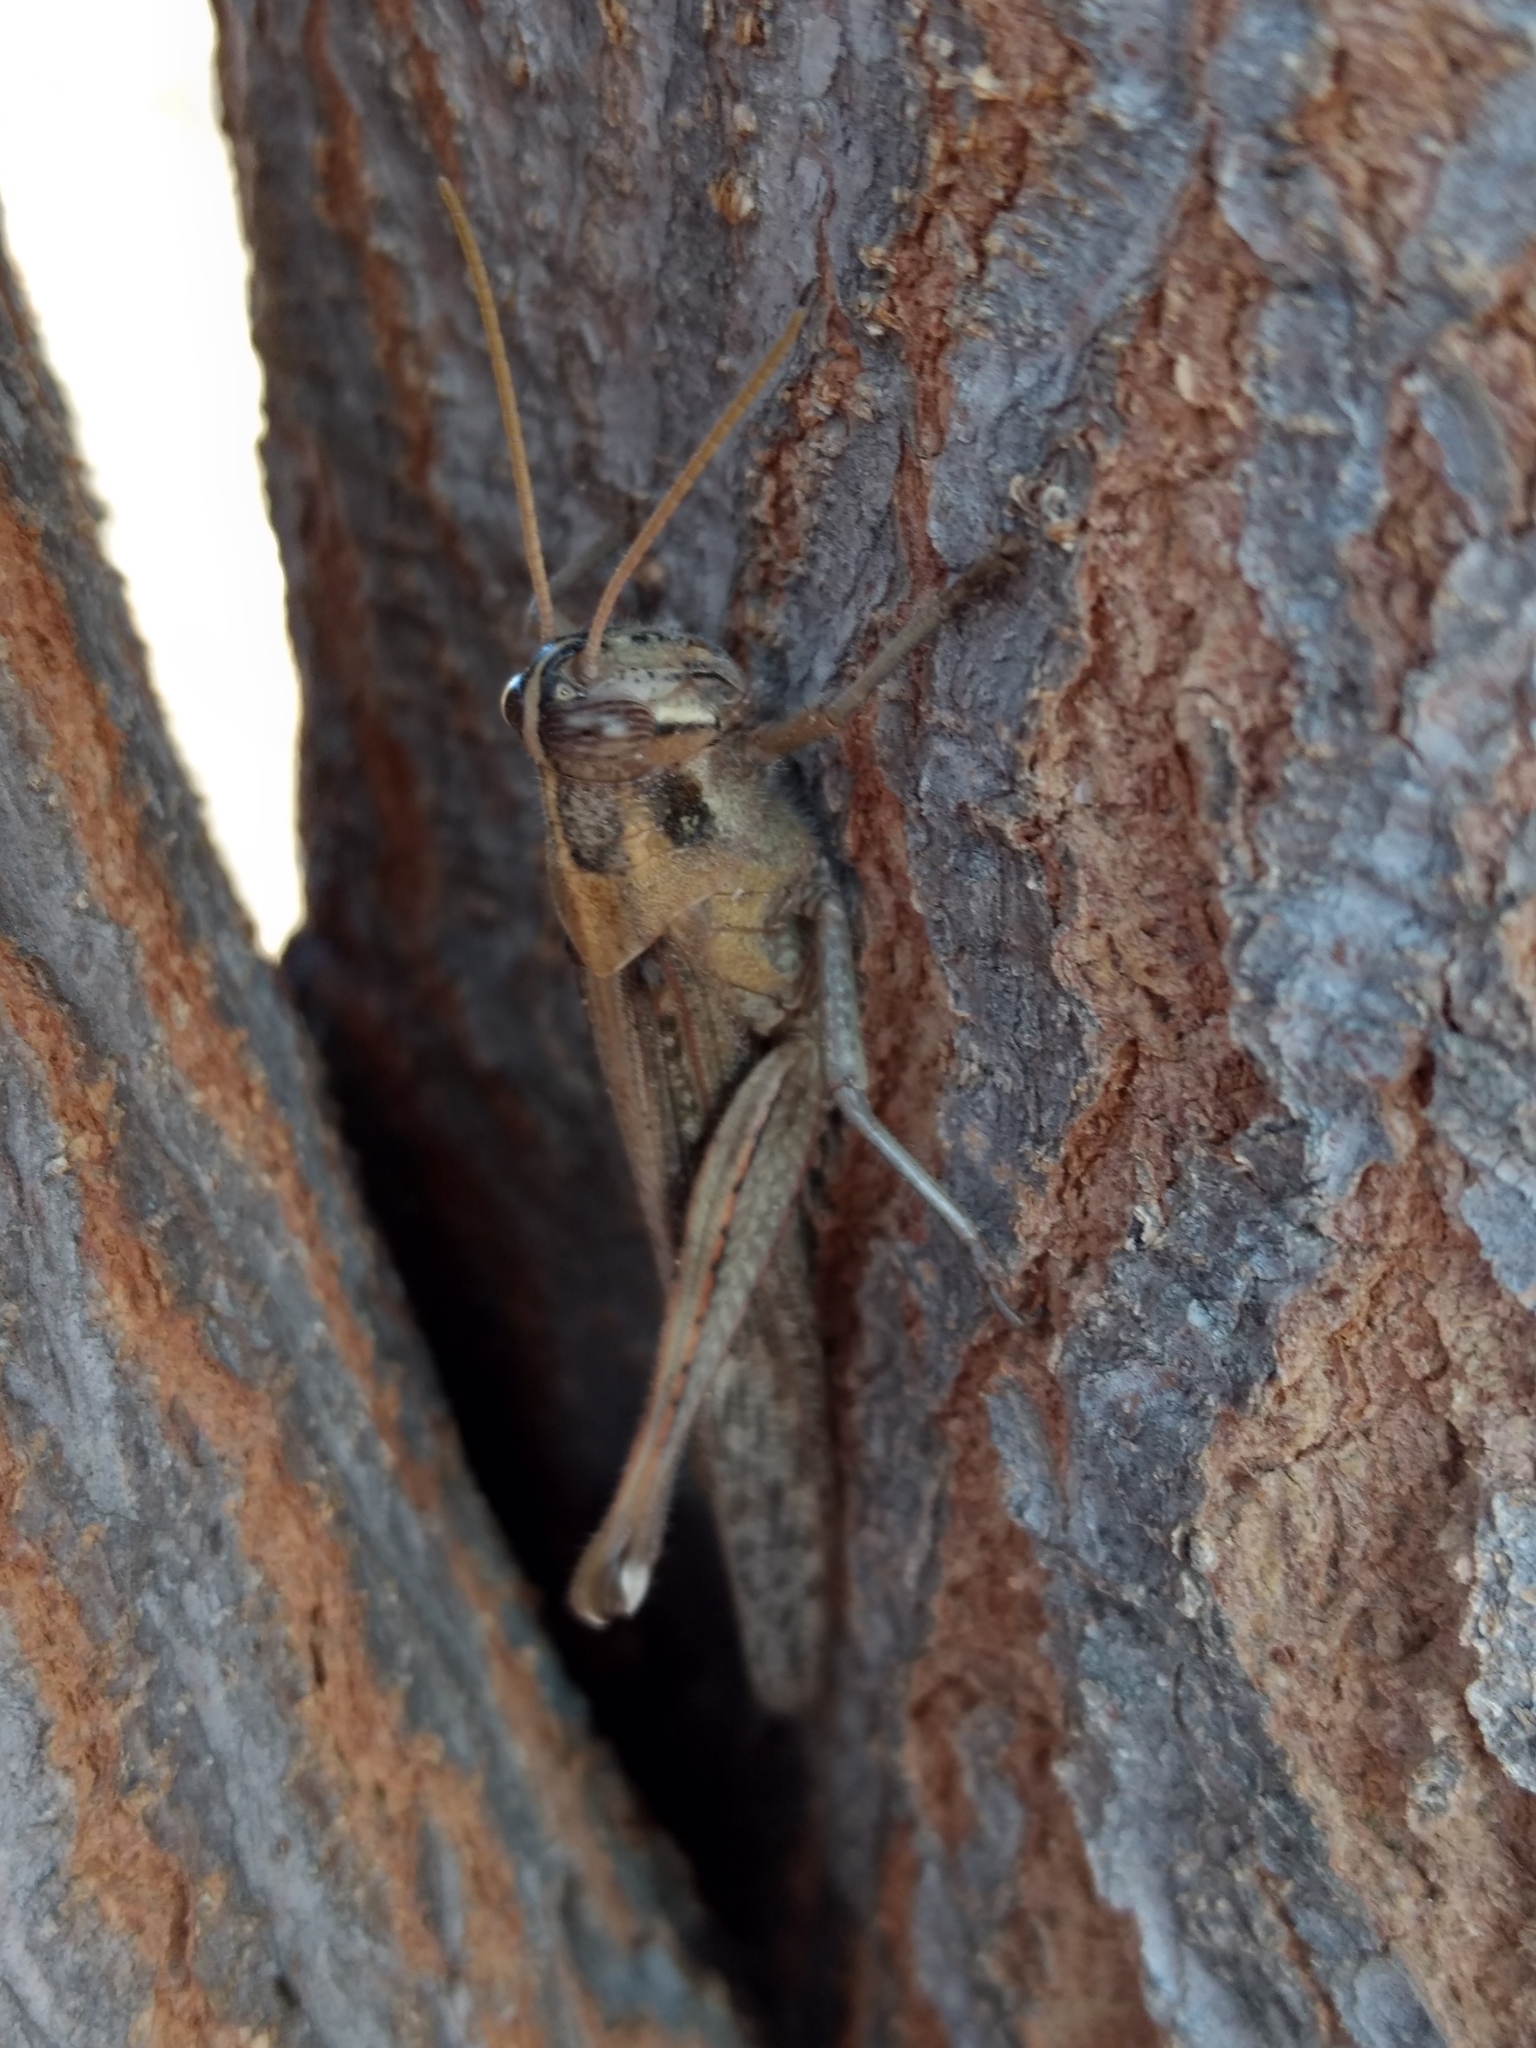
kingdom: Animalia
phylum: Arthropoda
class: Insecta
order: Orthoptera
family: Acrididae
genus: Schistocerca
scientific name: Schistocerca nitens
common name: Vagrant grasshopper
